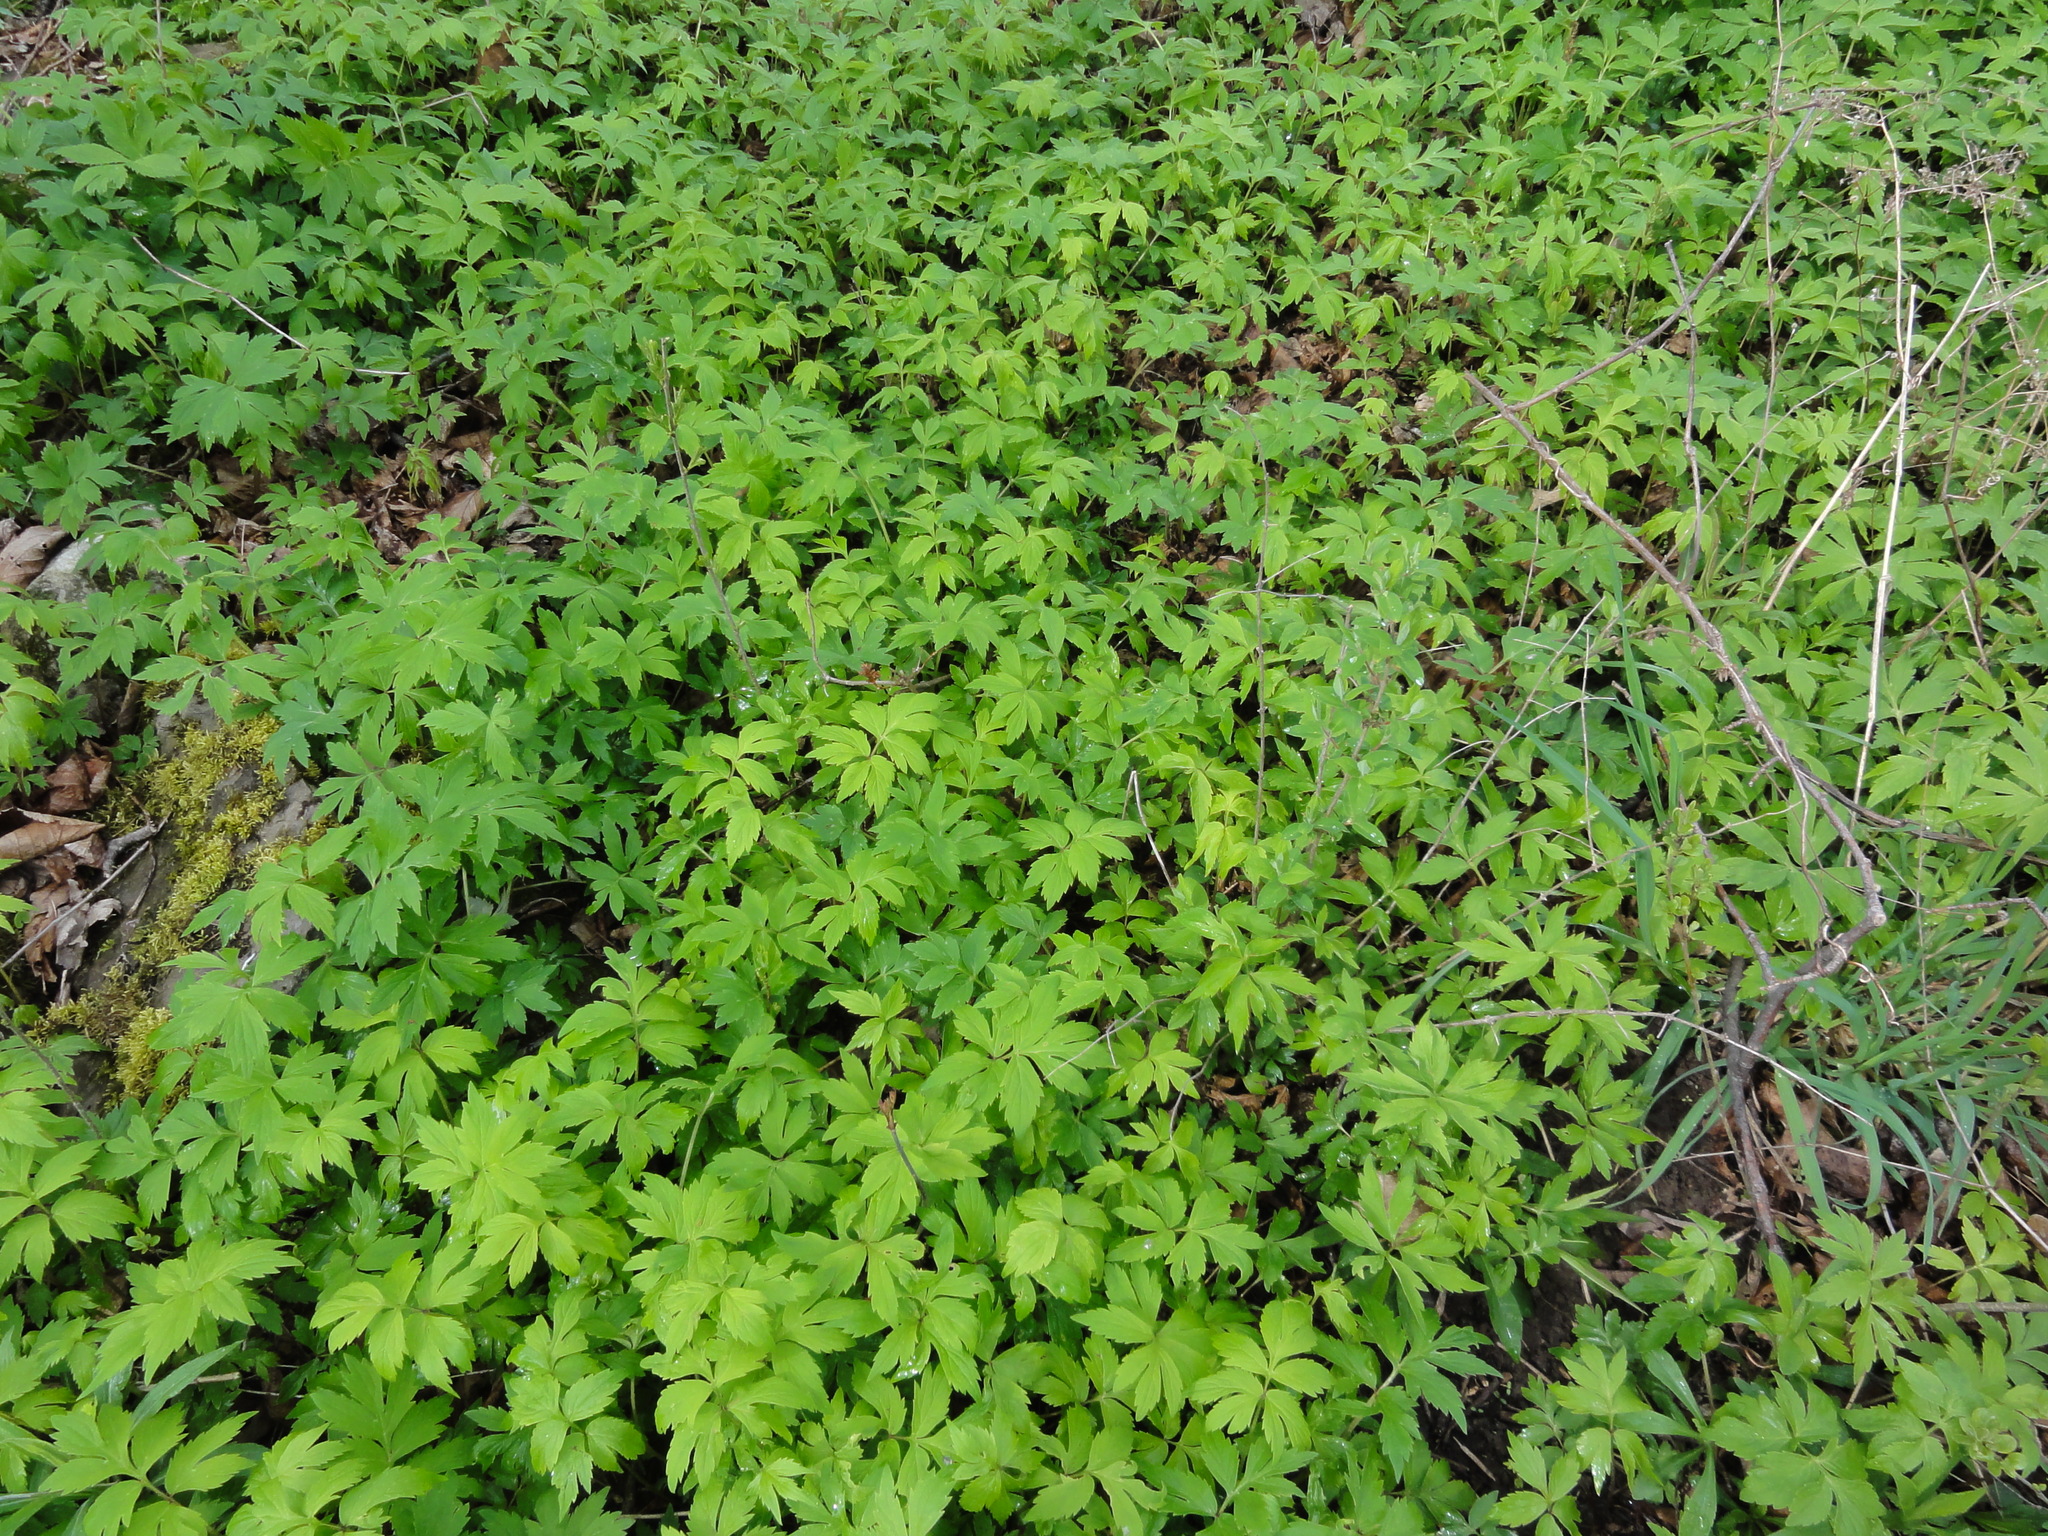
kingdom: Plantae
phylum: Tracheophyta
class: Magnoliopsida
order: Boraginales
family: Hydrophyllaceae
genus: Hydrophyllum
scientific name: Hydrophyllum virginianum
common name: Virginia waterleaf
